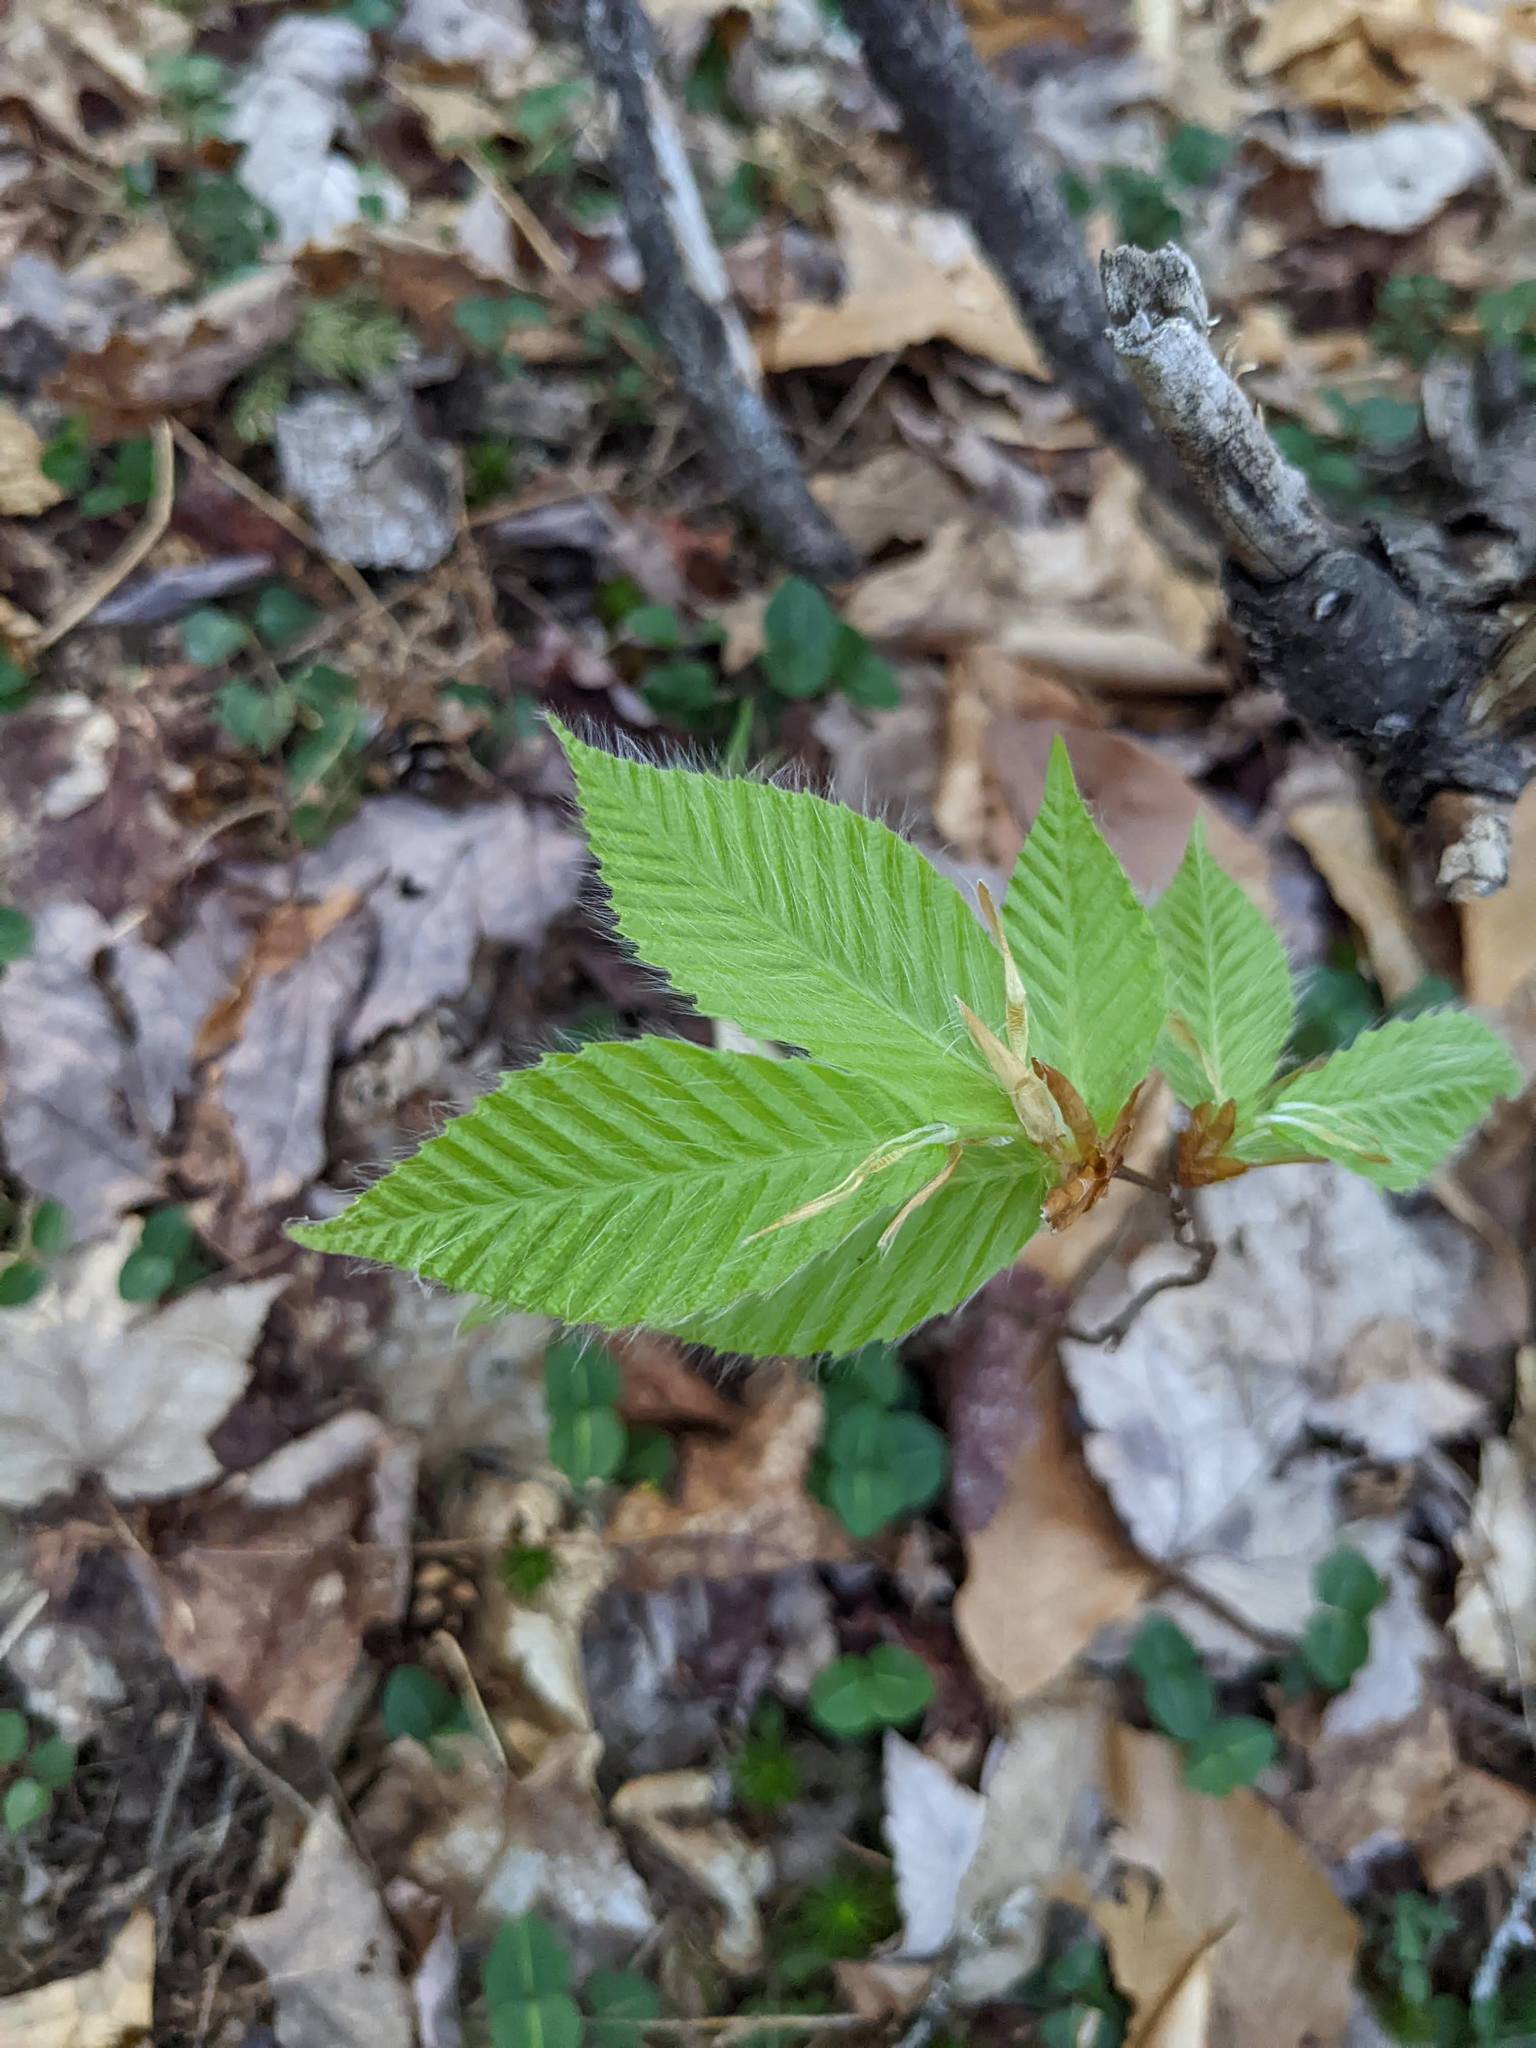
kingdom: Plantae
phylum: Tracheophyta
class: Magnoliopsida
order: Fagales
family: Fagaceae
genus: Fagus
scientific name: Fagus grandifolia
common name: American beech
